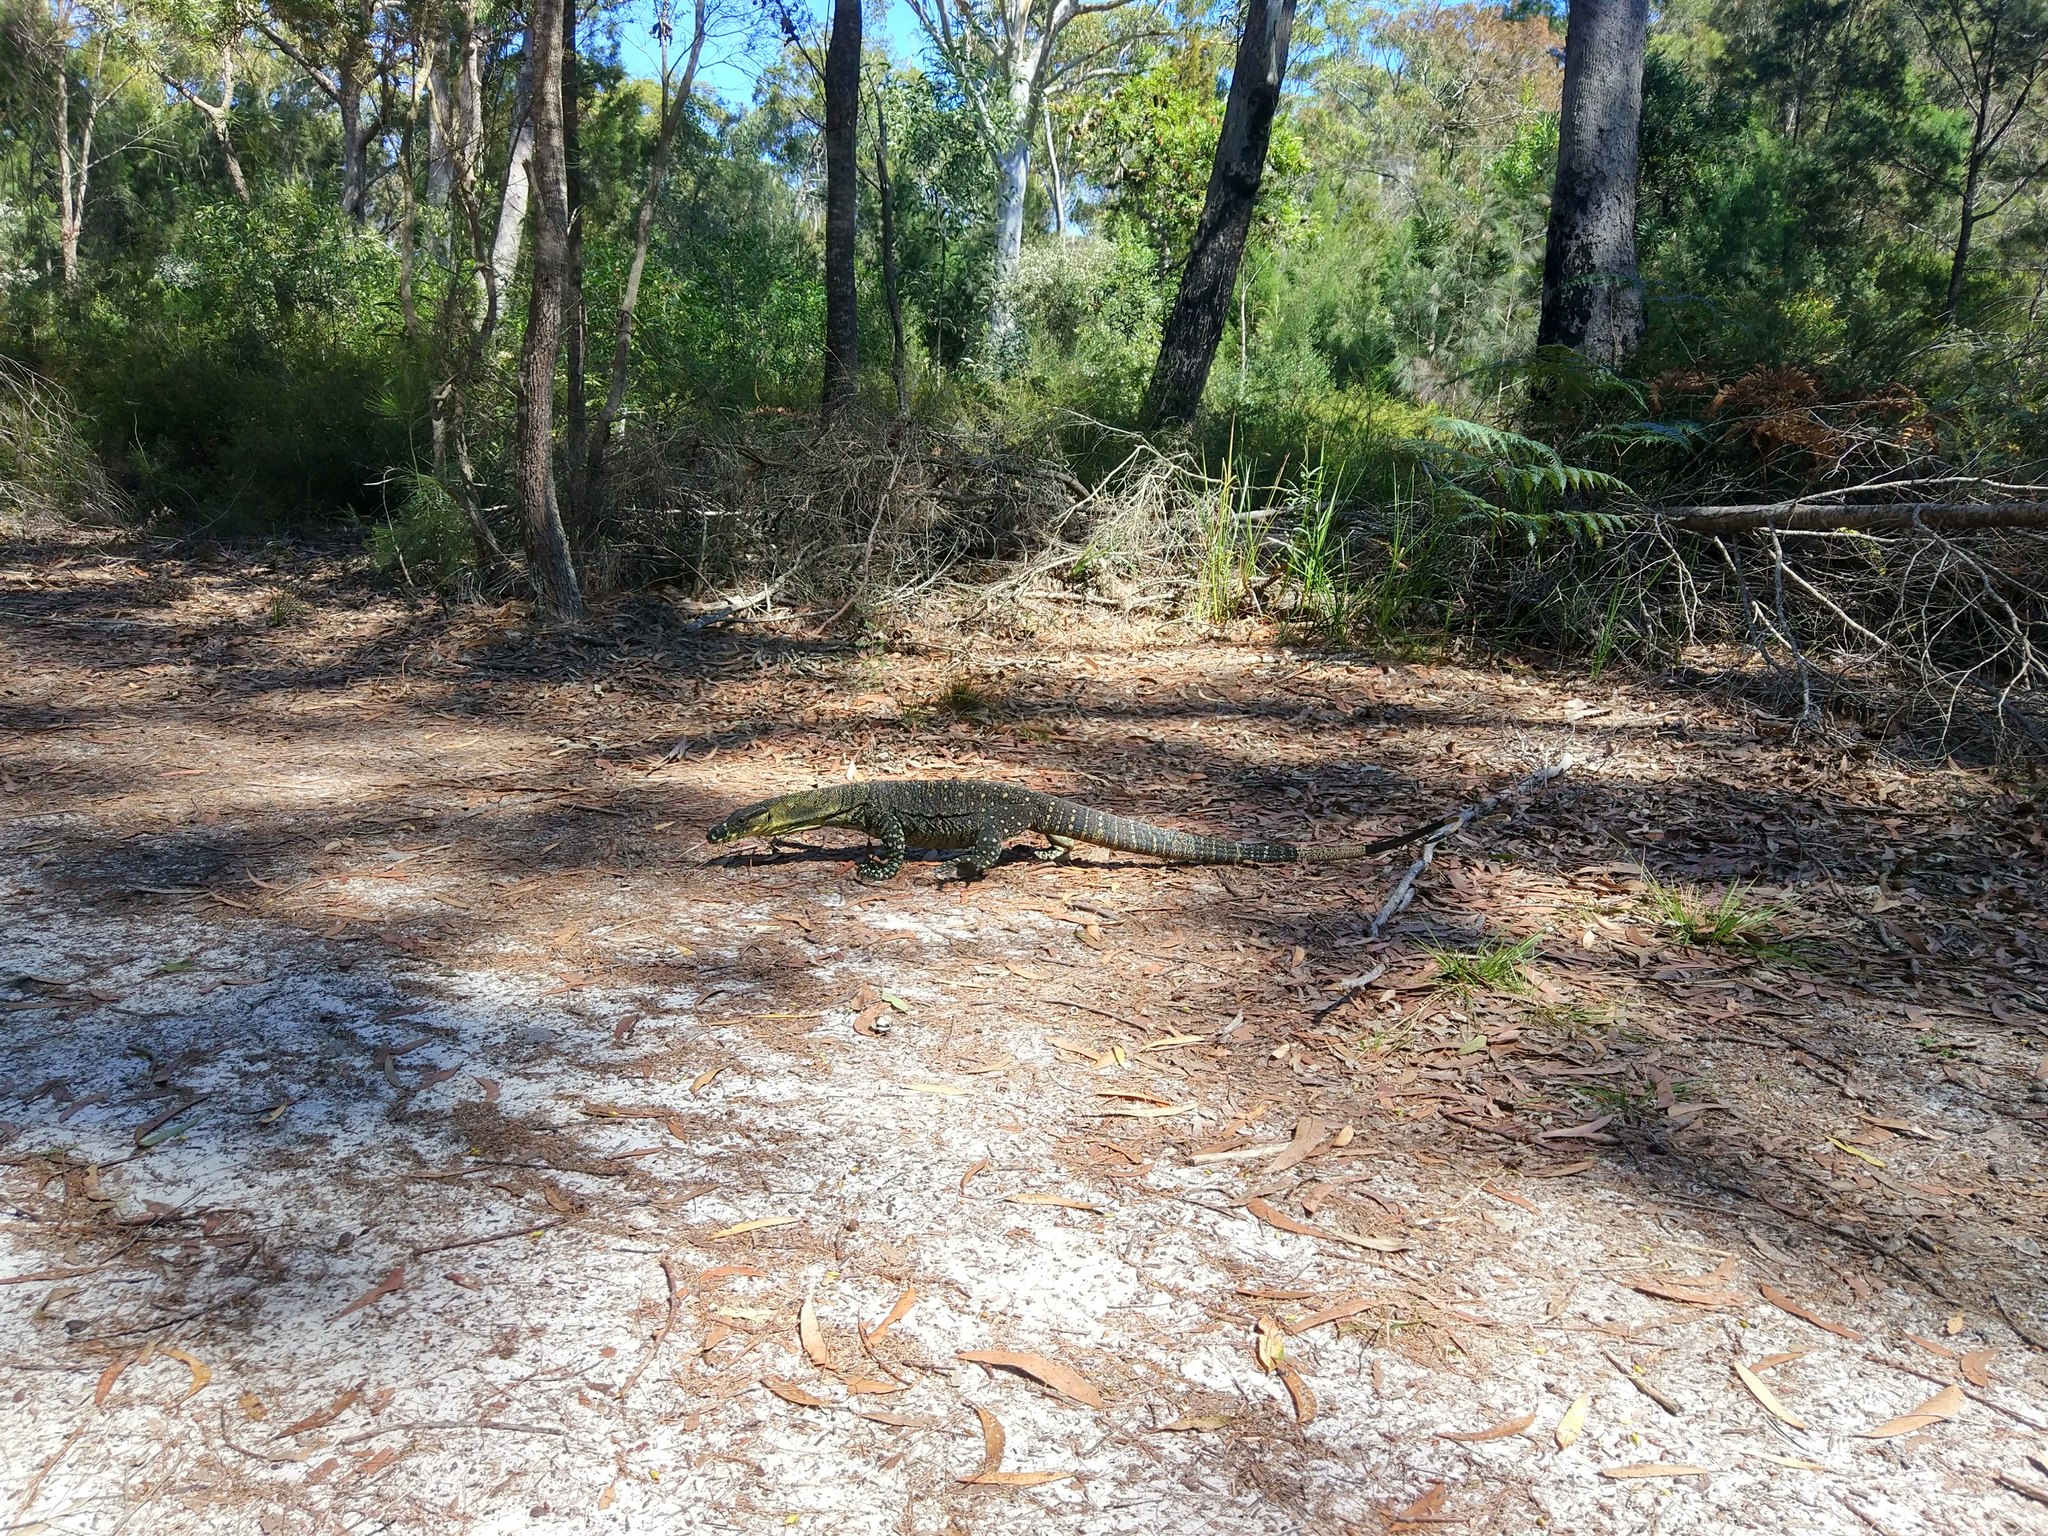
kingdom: Animalia
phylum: Chordata
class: Squamata
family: Varanidae
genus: Varanus
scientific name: Varanus varius
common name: Lace monitor
